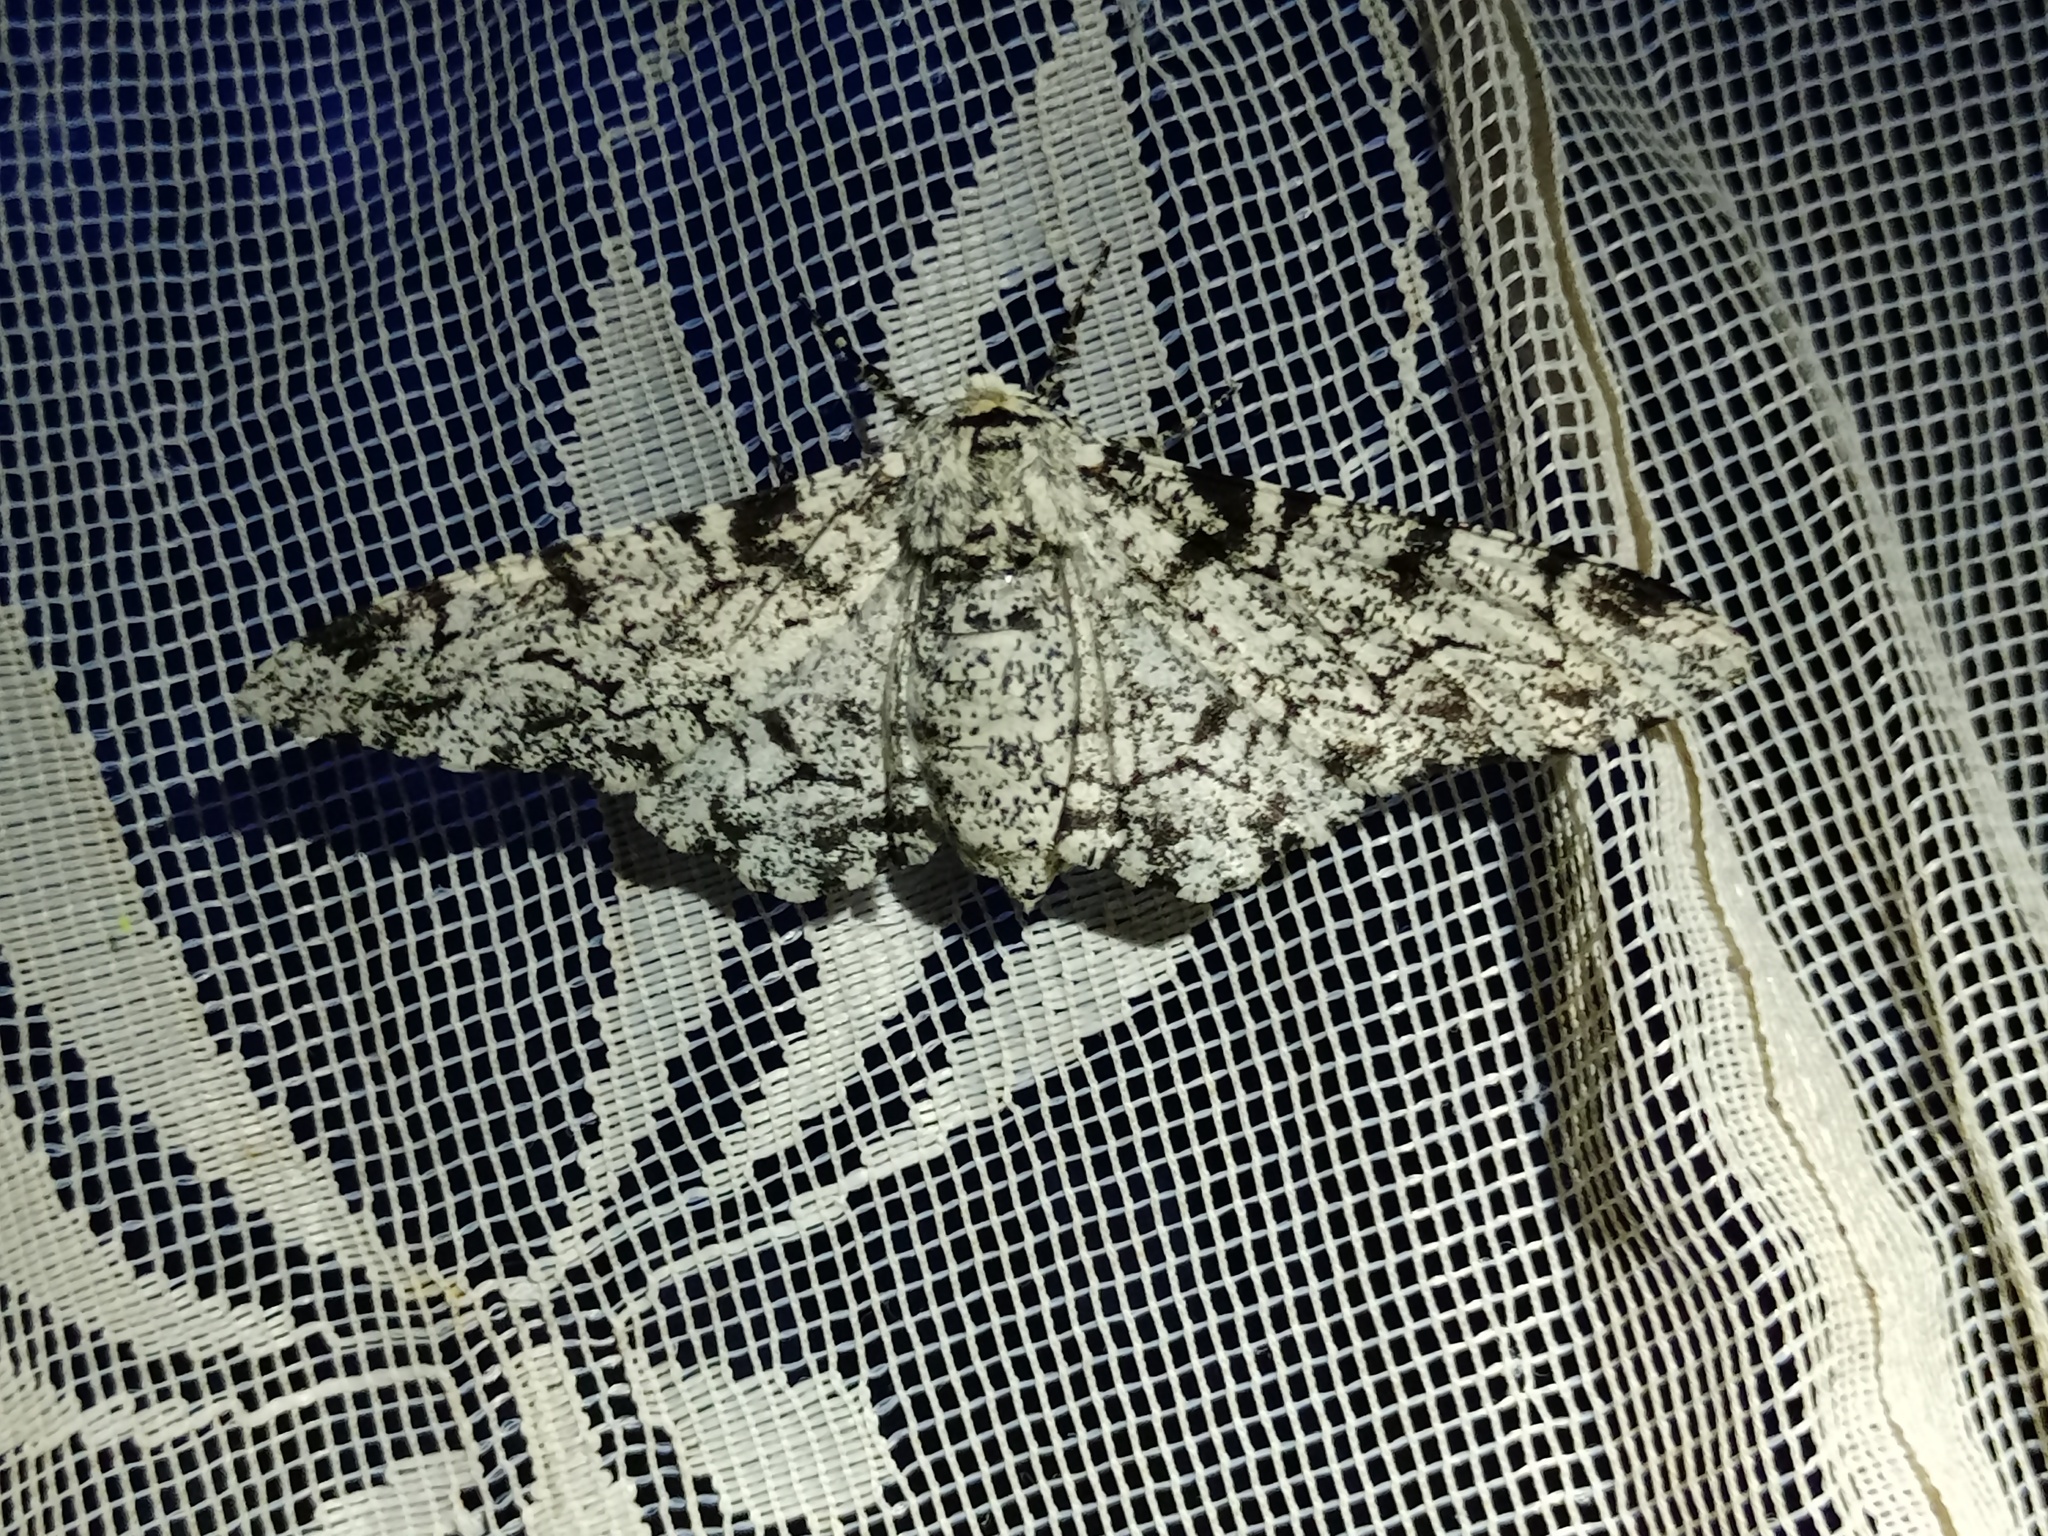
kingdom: Animalia
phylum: Arthropoda
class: Insecta
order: Lepidoptera
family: Geometridae
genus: Biston
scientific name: Biston betularia
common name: Peppered moth
